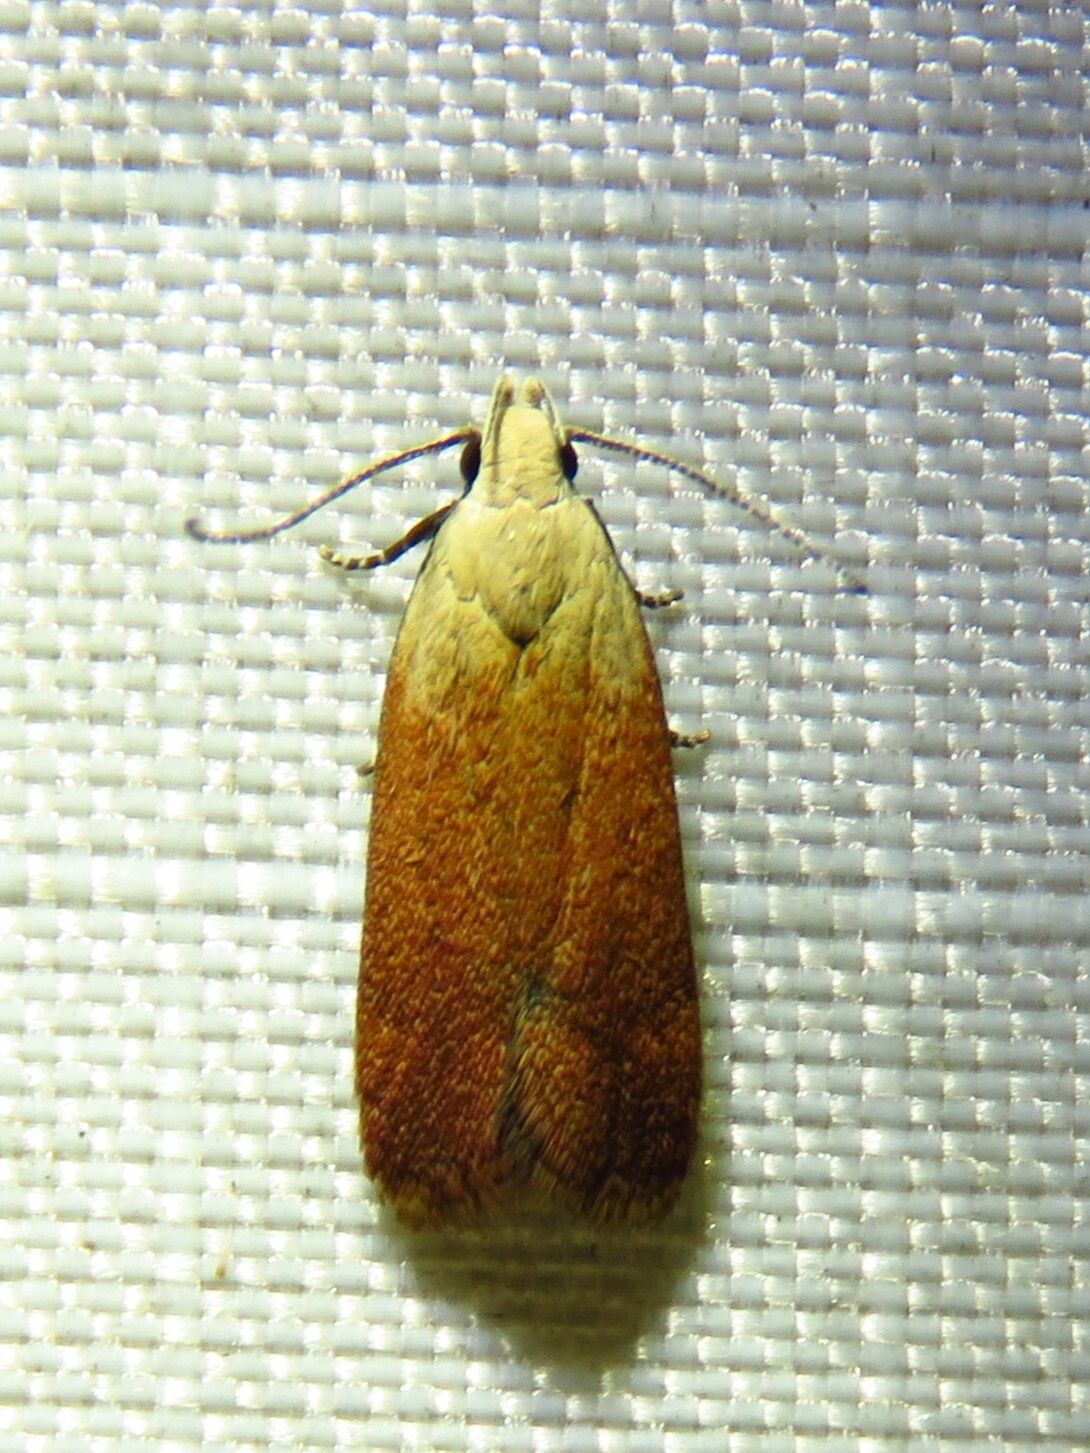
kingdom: Animalia
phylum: Arthropoda
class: Insecta
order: Lepidoptera
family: Gelechiidae
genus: Anacampsis
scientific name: Anacampsis fullonella
